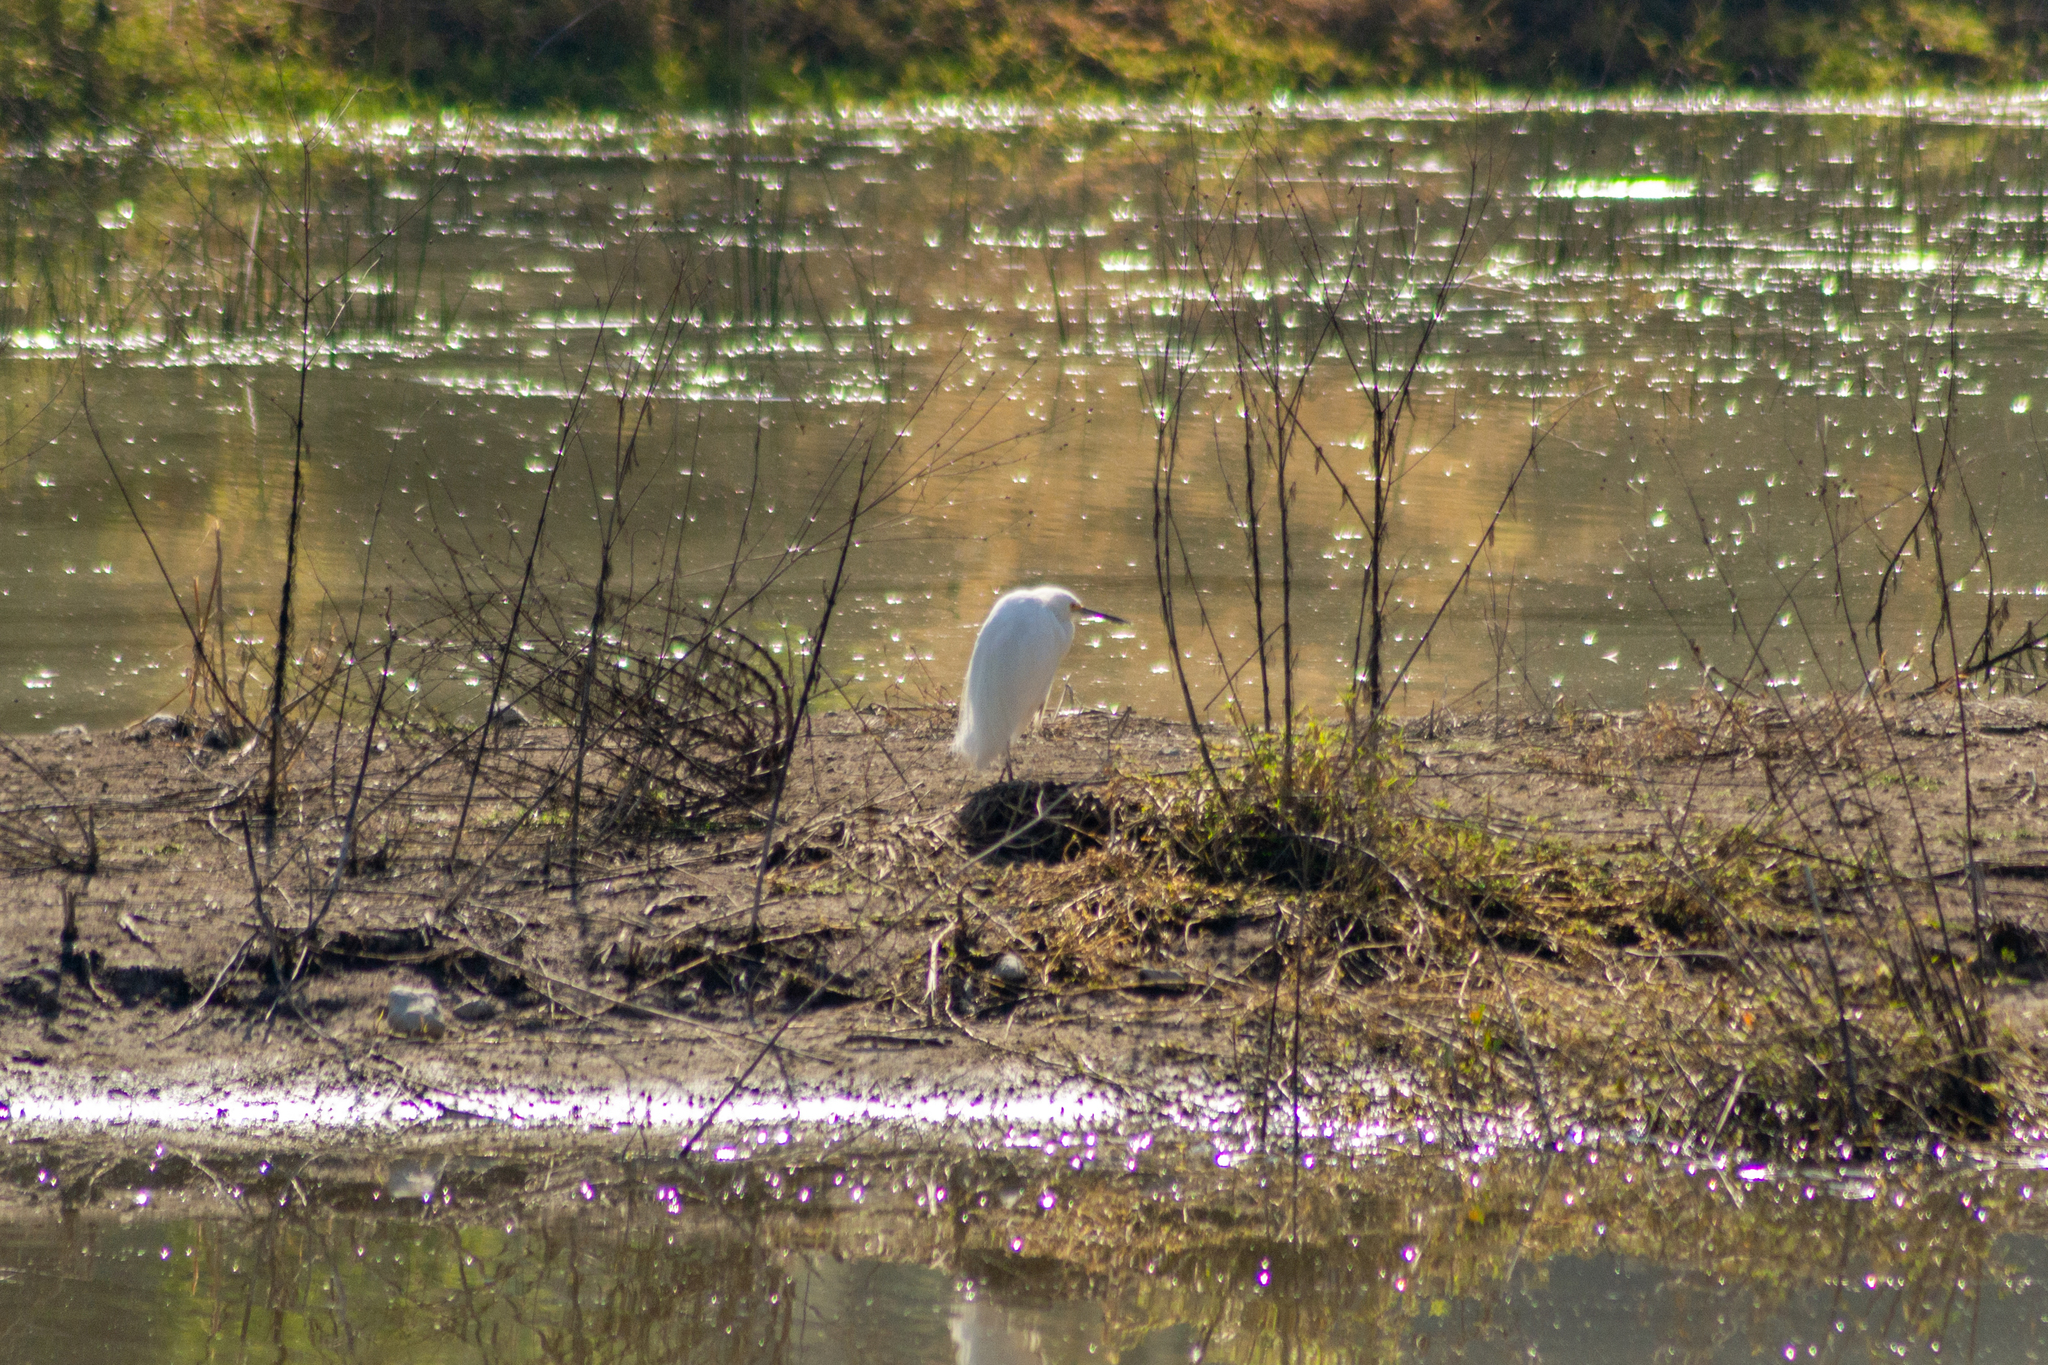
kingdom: Animalia
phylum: Chordata
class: Aves
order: Pelecaniformes
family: Ardeidae
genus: Egretta
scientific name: Egretta thula
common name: Snowy egret
